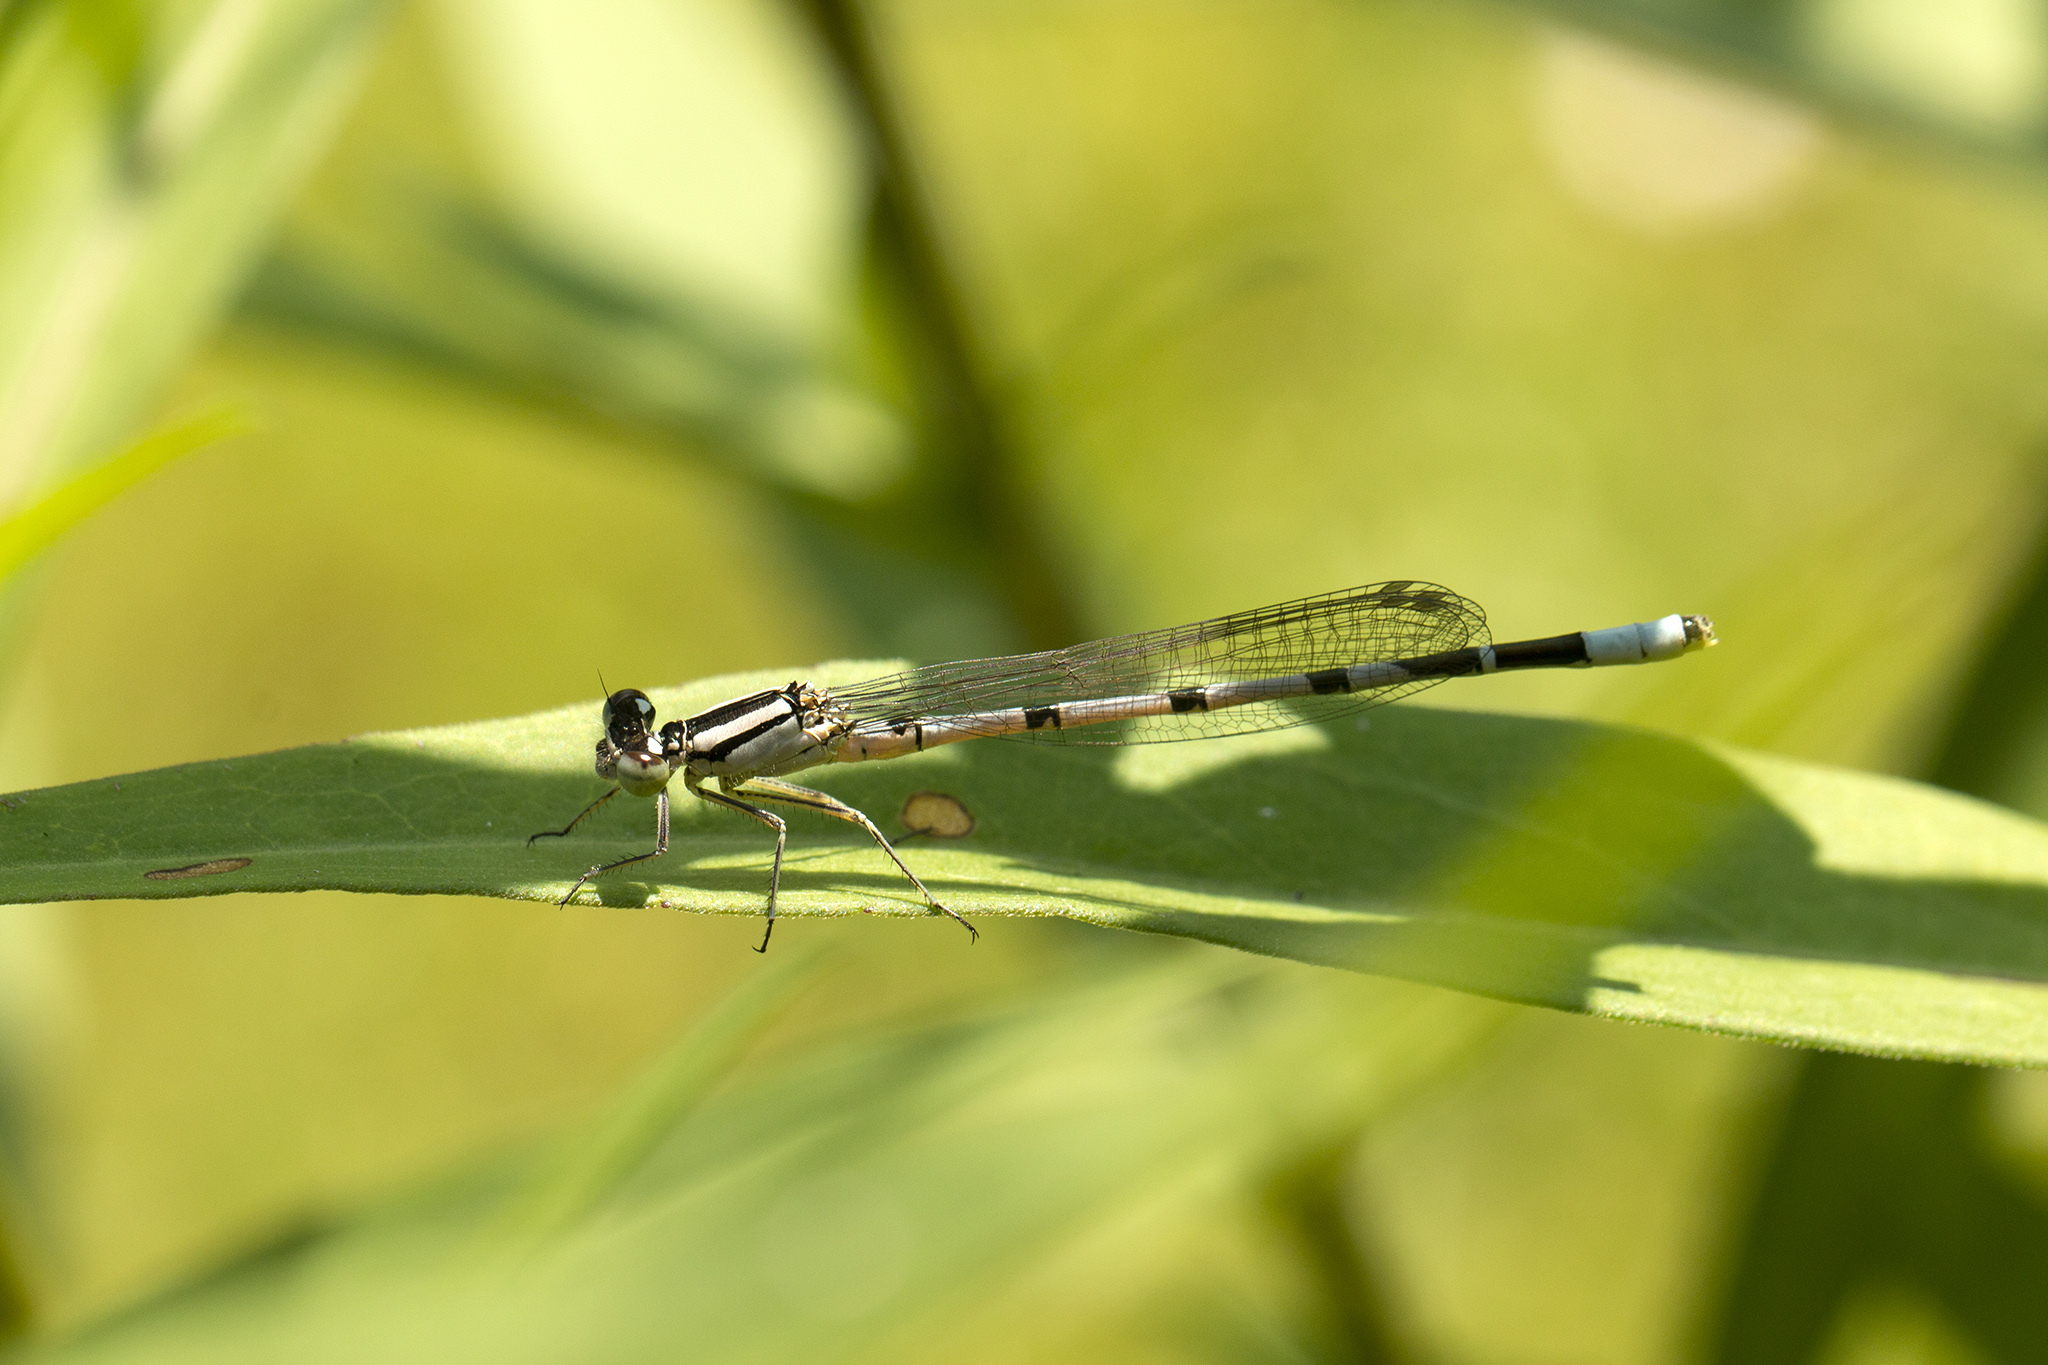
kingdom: Animalia
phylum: Arthropoda
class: Insecta
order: Odonata
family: Coenagrionidae
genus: Enallagma
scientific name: Enallagma cyathigerum
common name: Common blue damselfly
